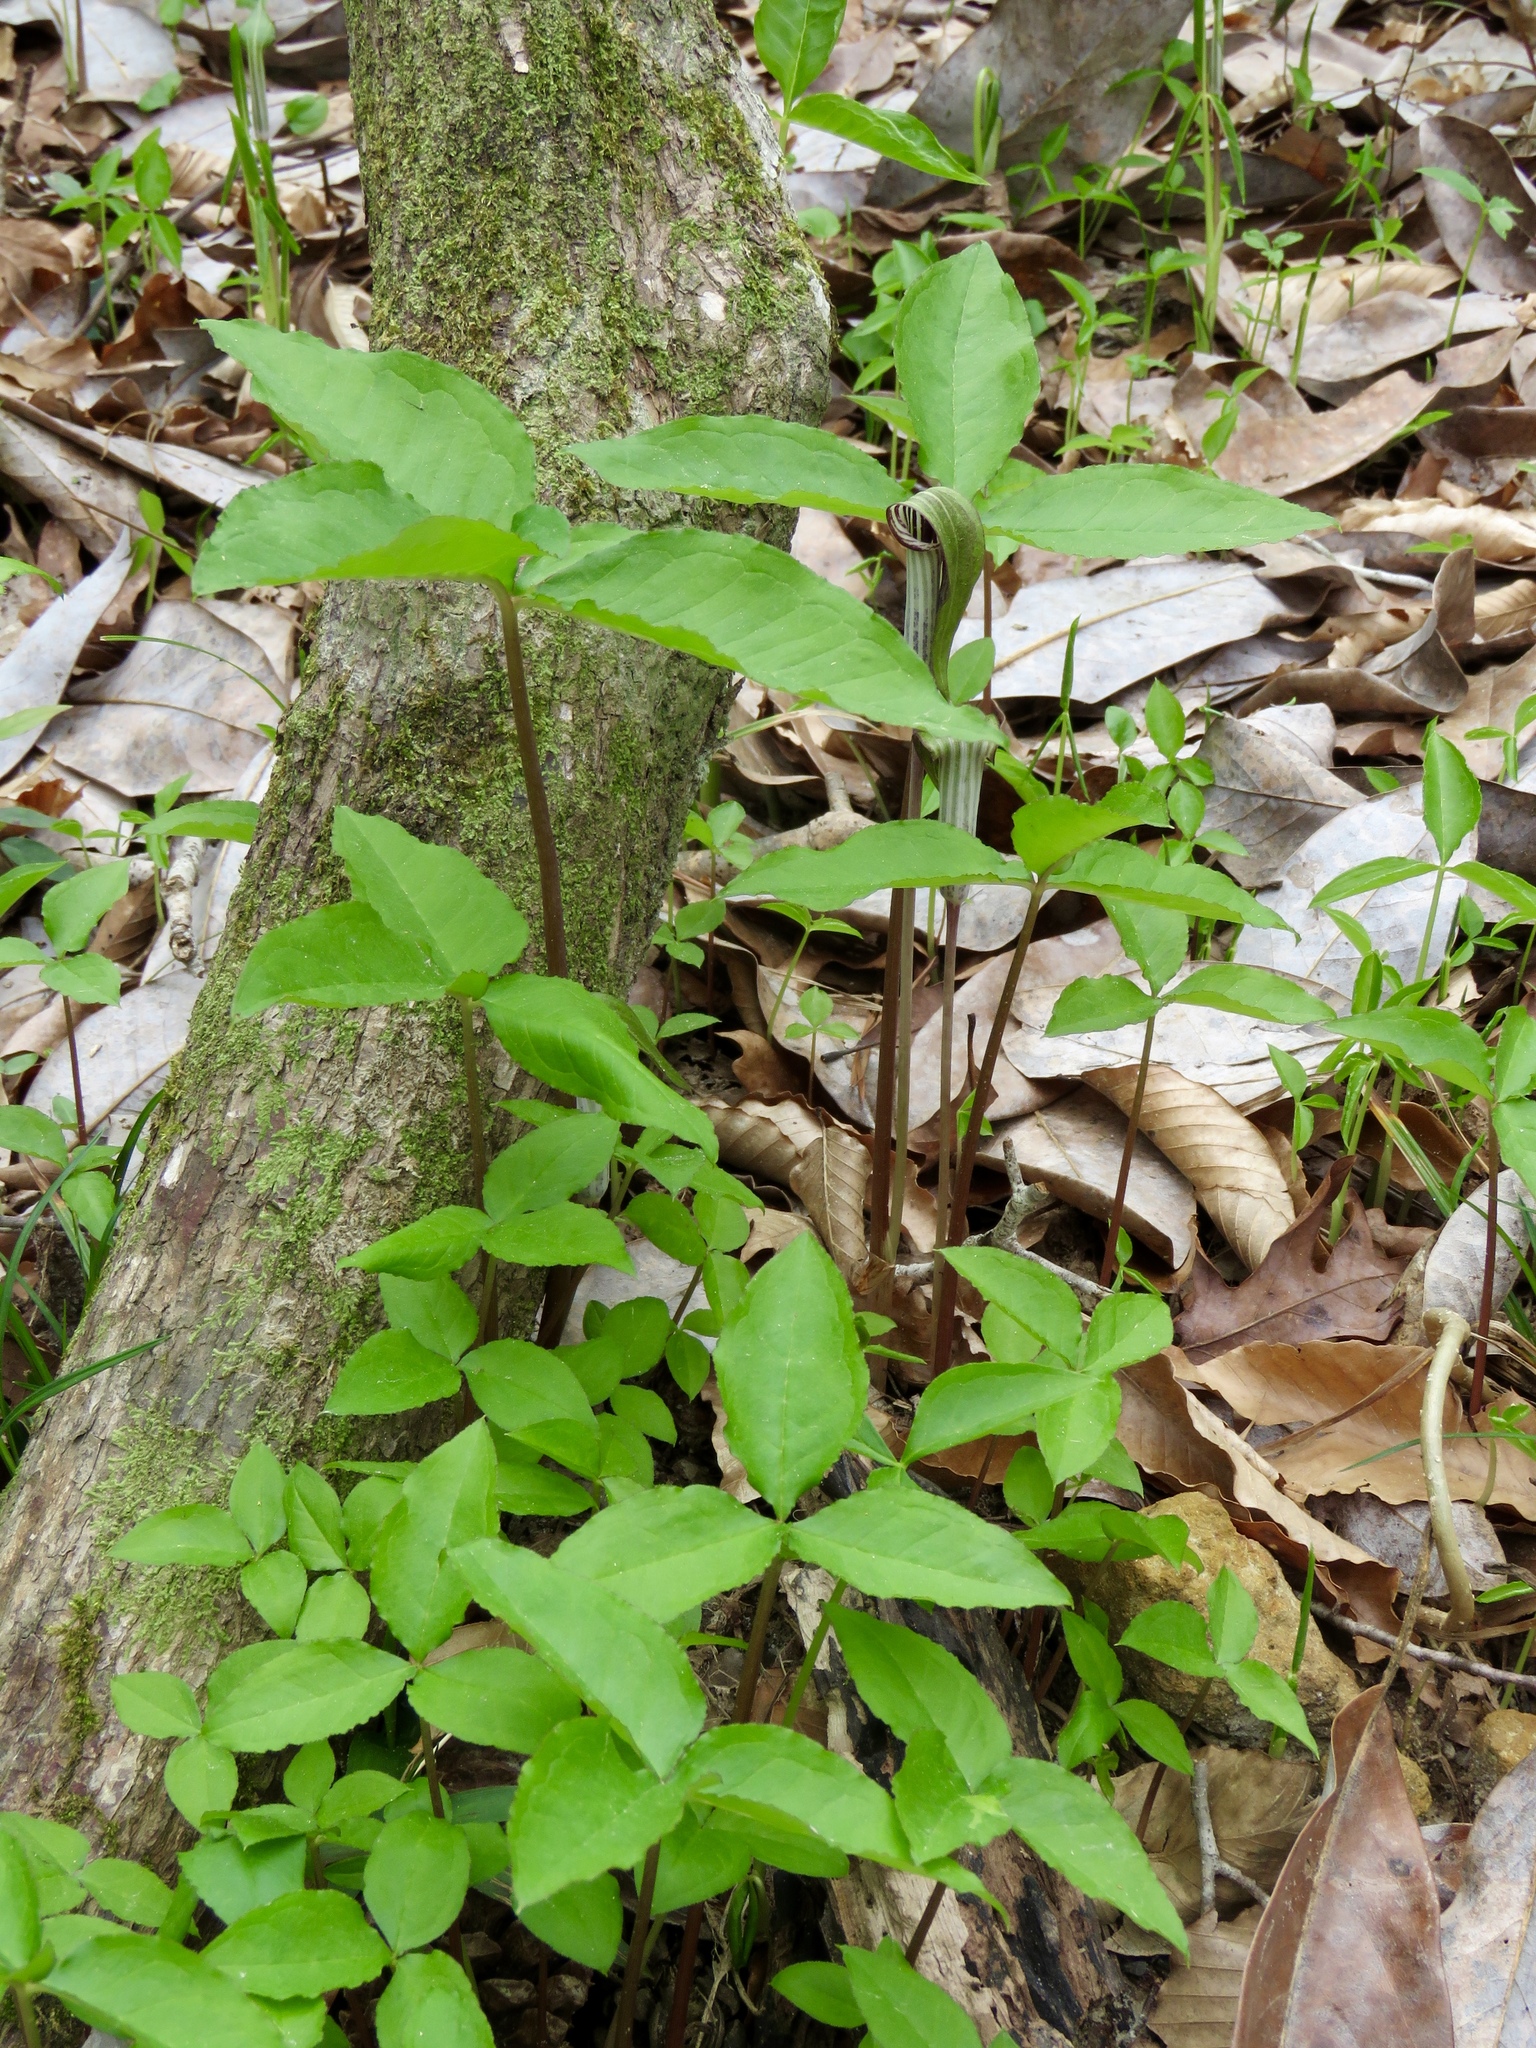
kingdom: Plantae
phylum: Tracheophyta
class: Liliopsida
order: Alismatales
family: Araceae
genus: Arisaema
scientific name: Arisaema triphyllum
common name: Jack-in-the-pulpit
